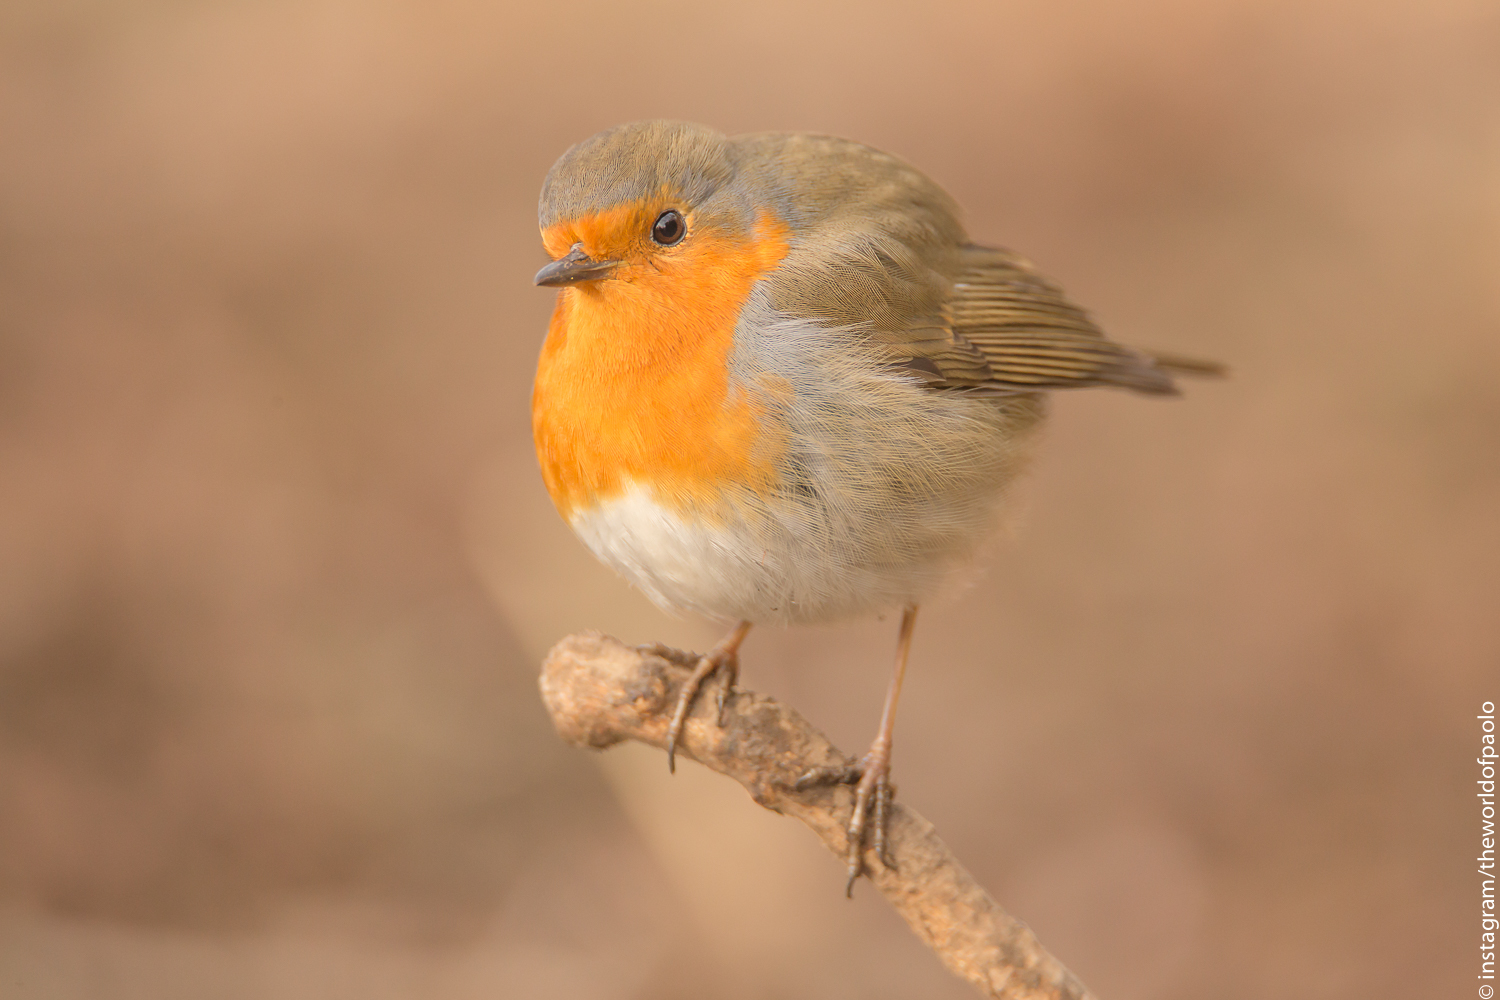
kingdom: Animalia
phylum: Chordata
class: Aves
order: Passeriformes
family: Muscicapidae
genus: Erithacus
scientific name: Erithacus rubecula
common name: European robin
